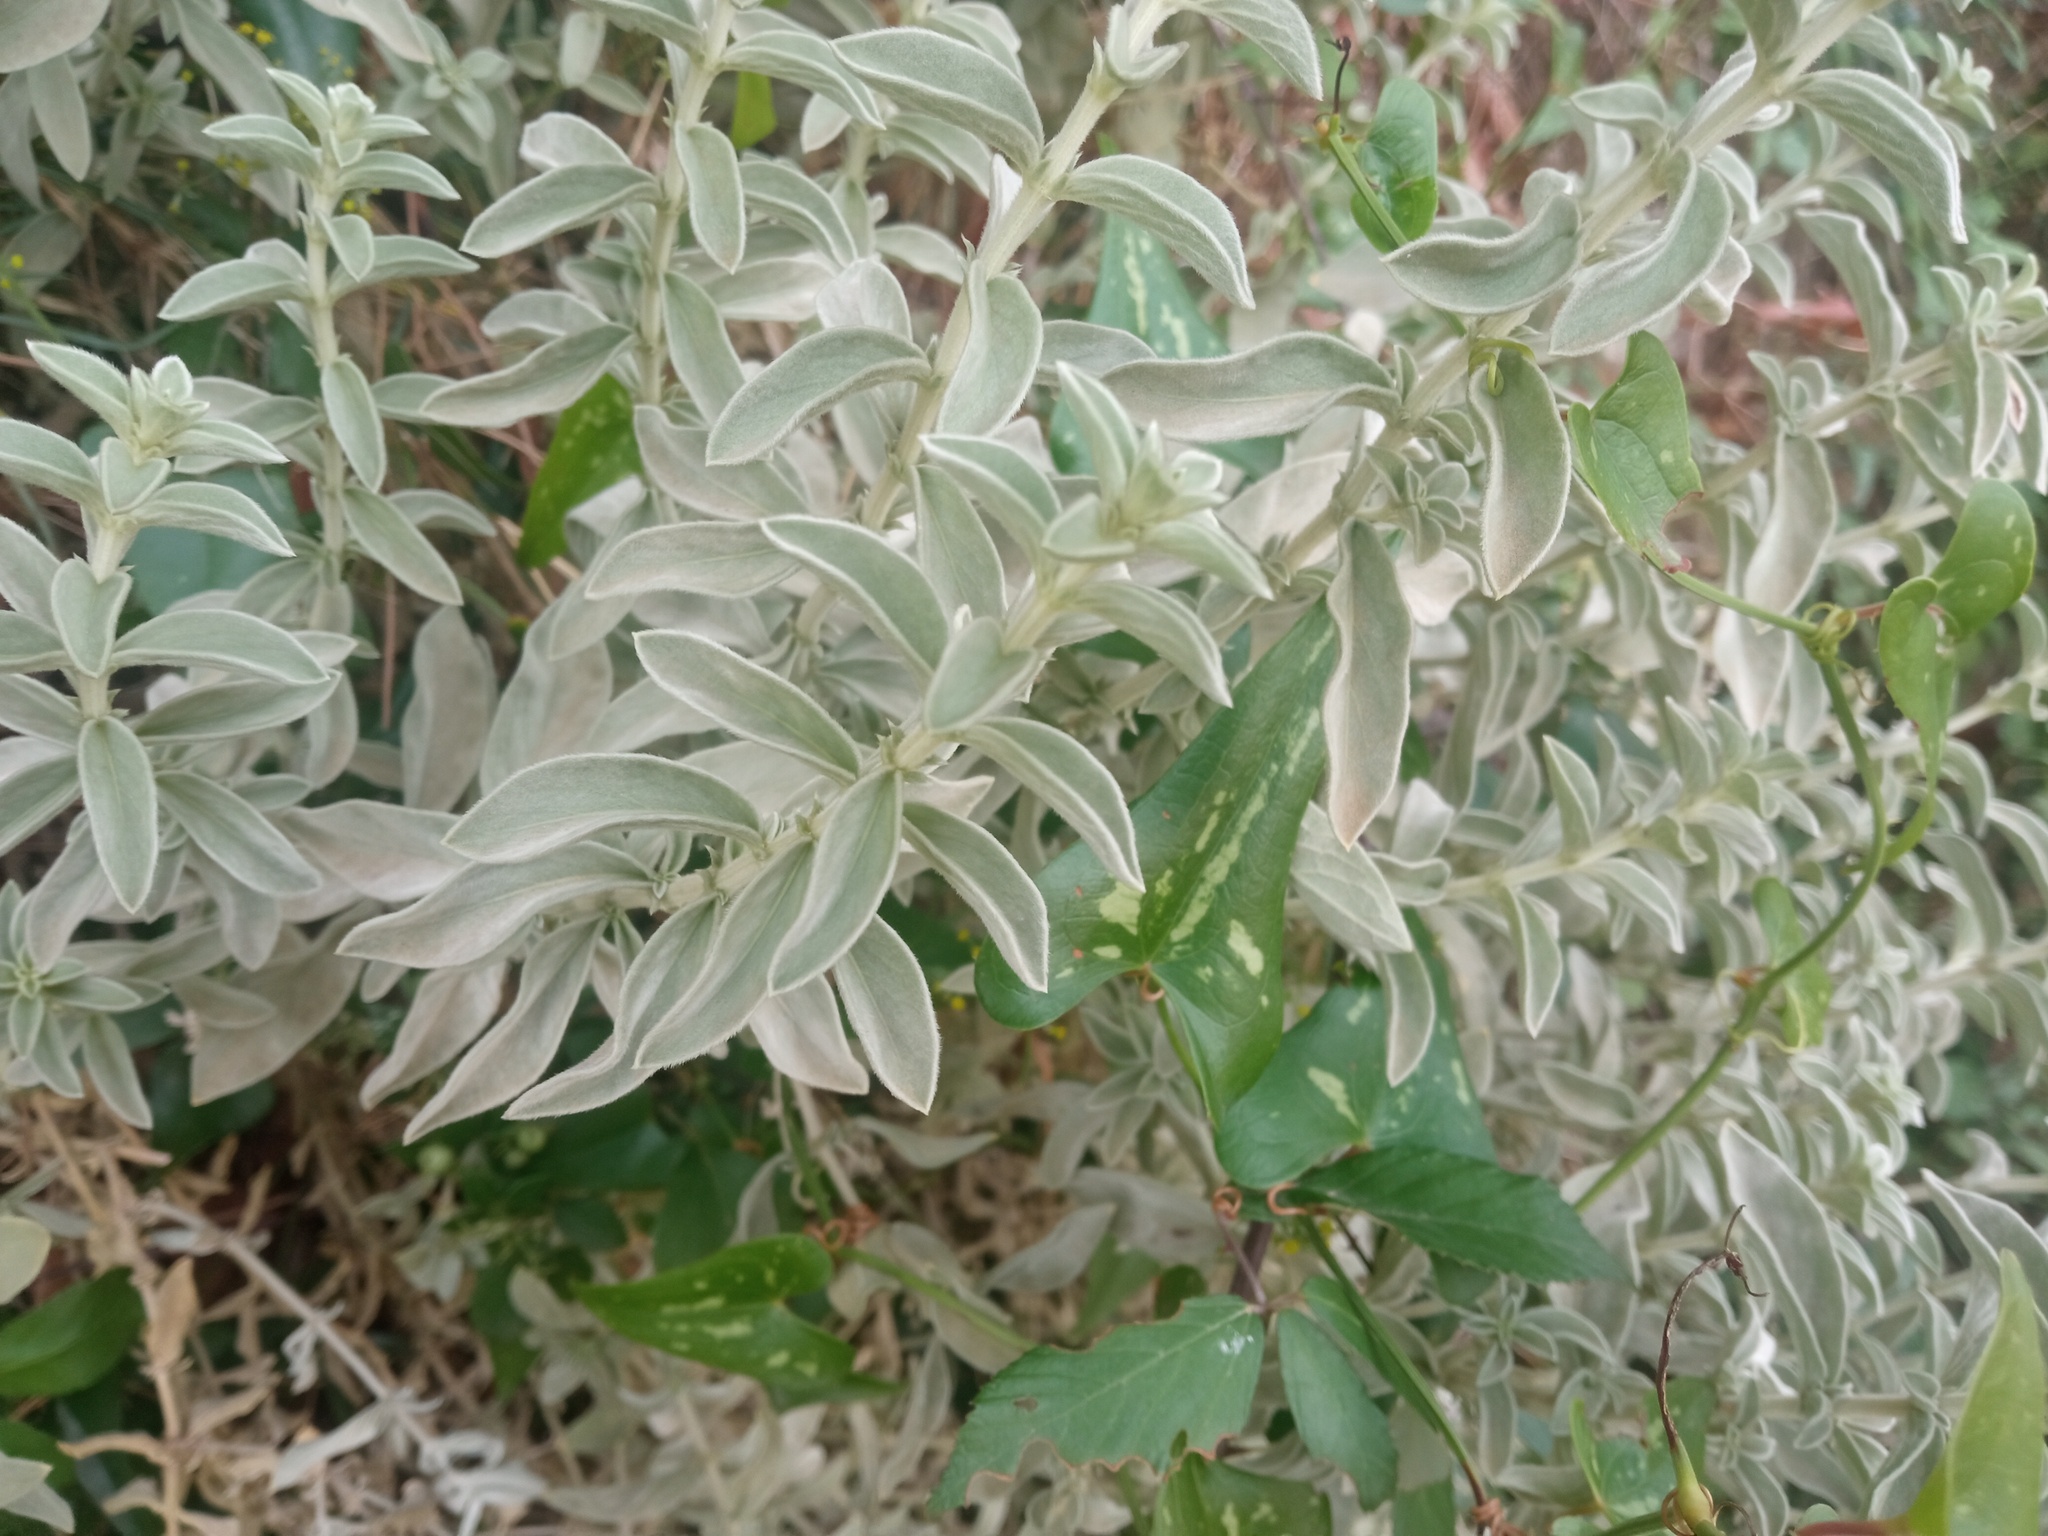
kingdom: Plantae
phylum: Tracheophyta
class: Magnoliopsida
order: Malpighiales
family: Euphorbiaceae
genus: Mercurialis
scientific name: Mercurialis tomentosa
